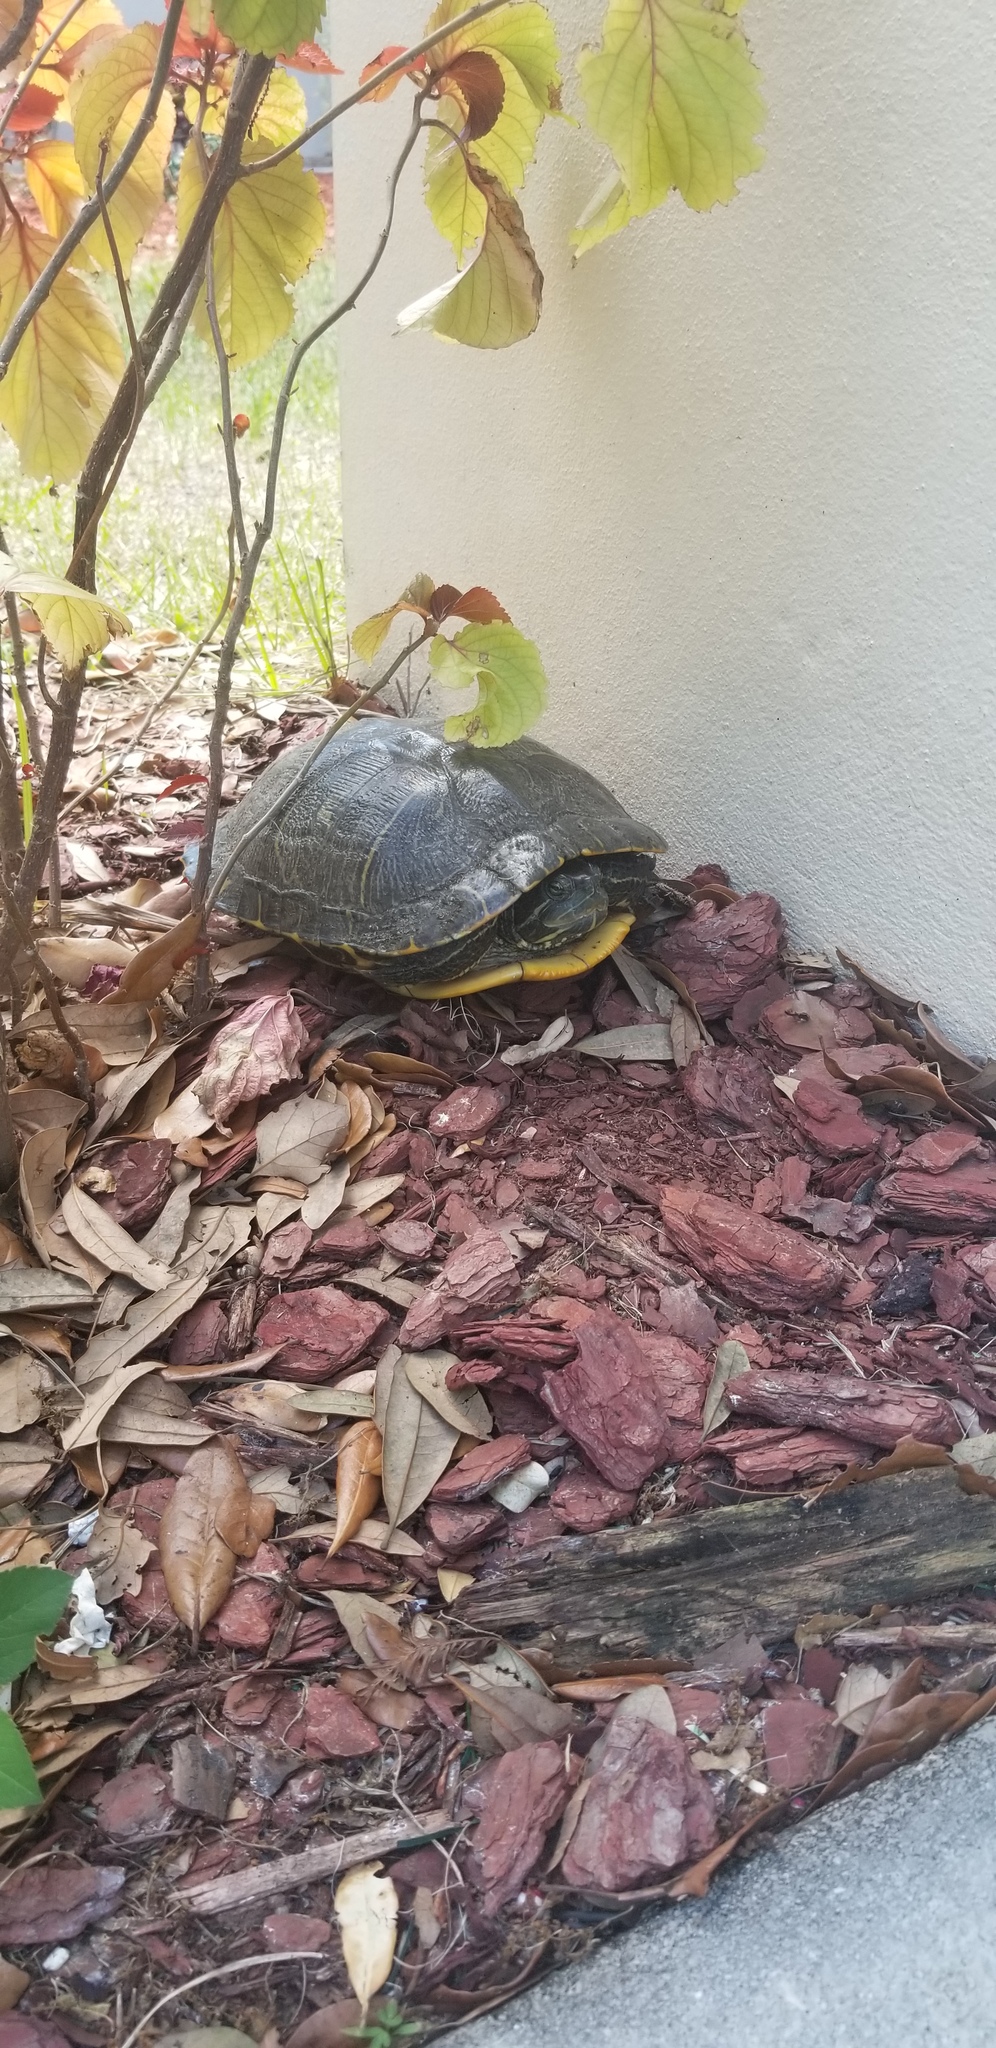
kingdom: Animalia
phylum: Chordata
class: Testudines
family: Emydidae
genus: Trachemys
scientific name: Trachemys scripta
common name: Slider
